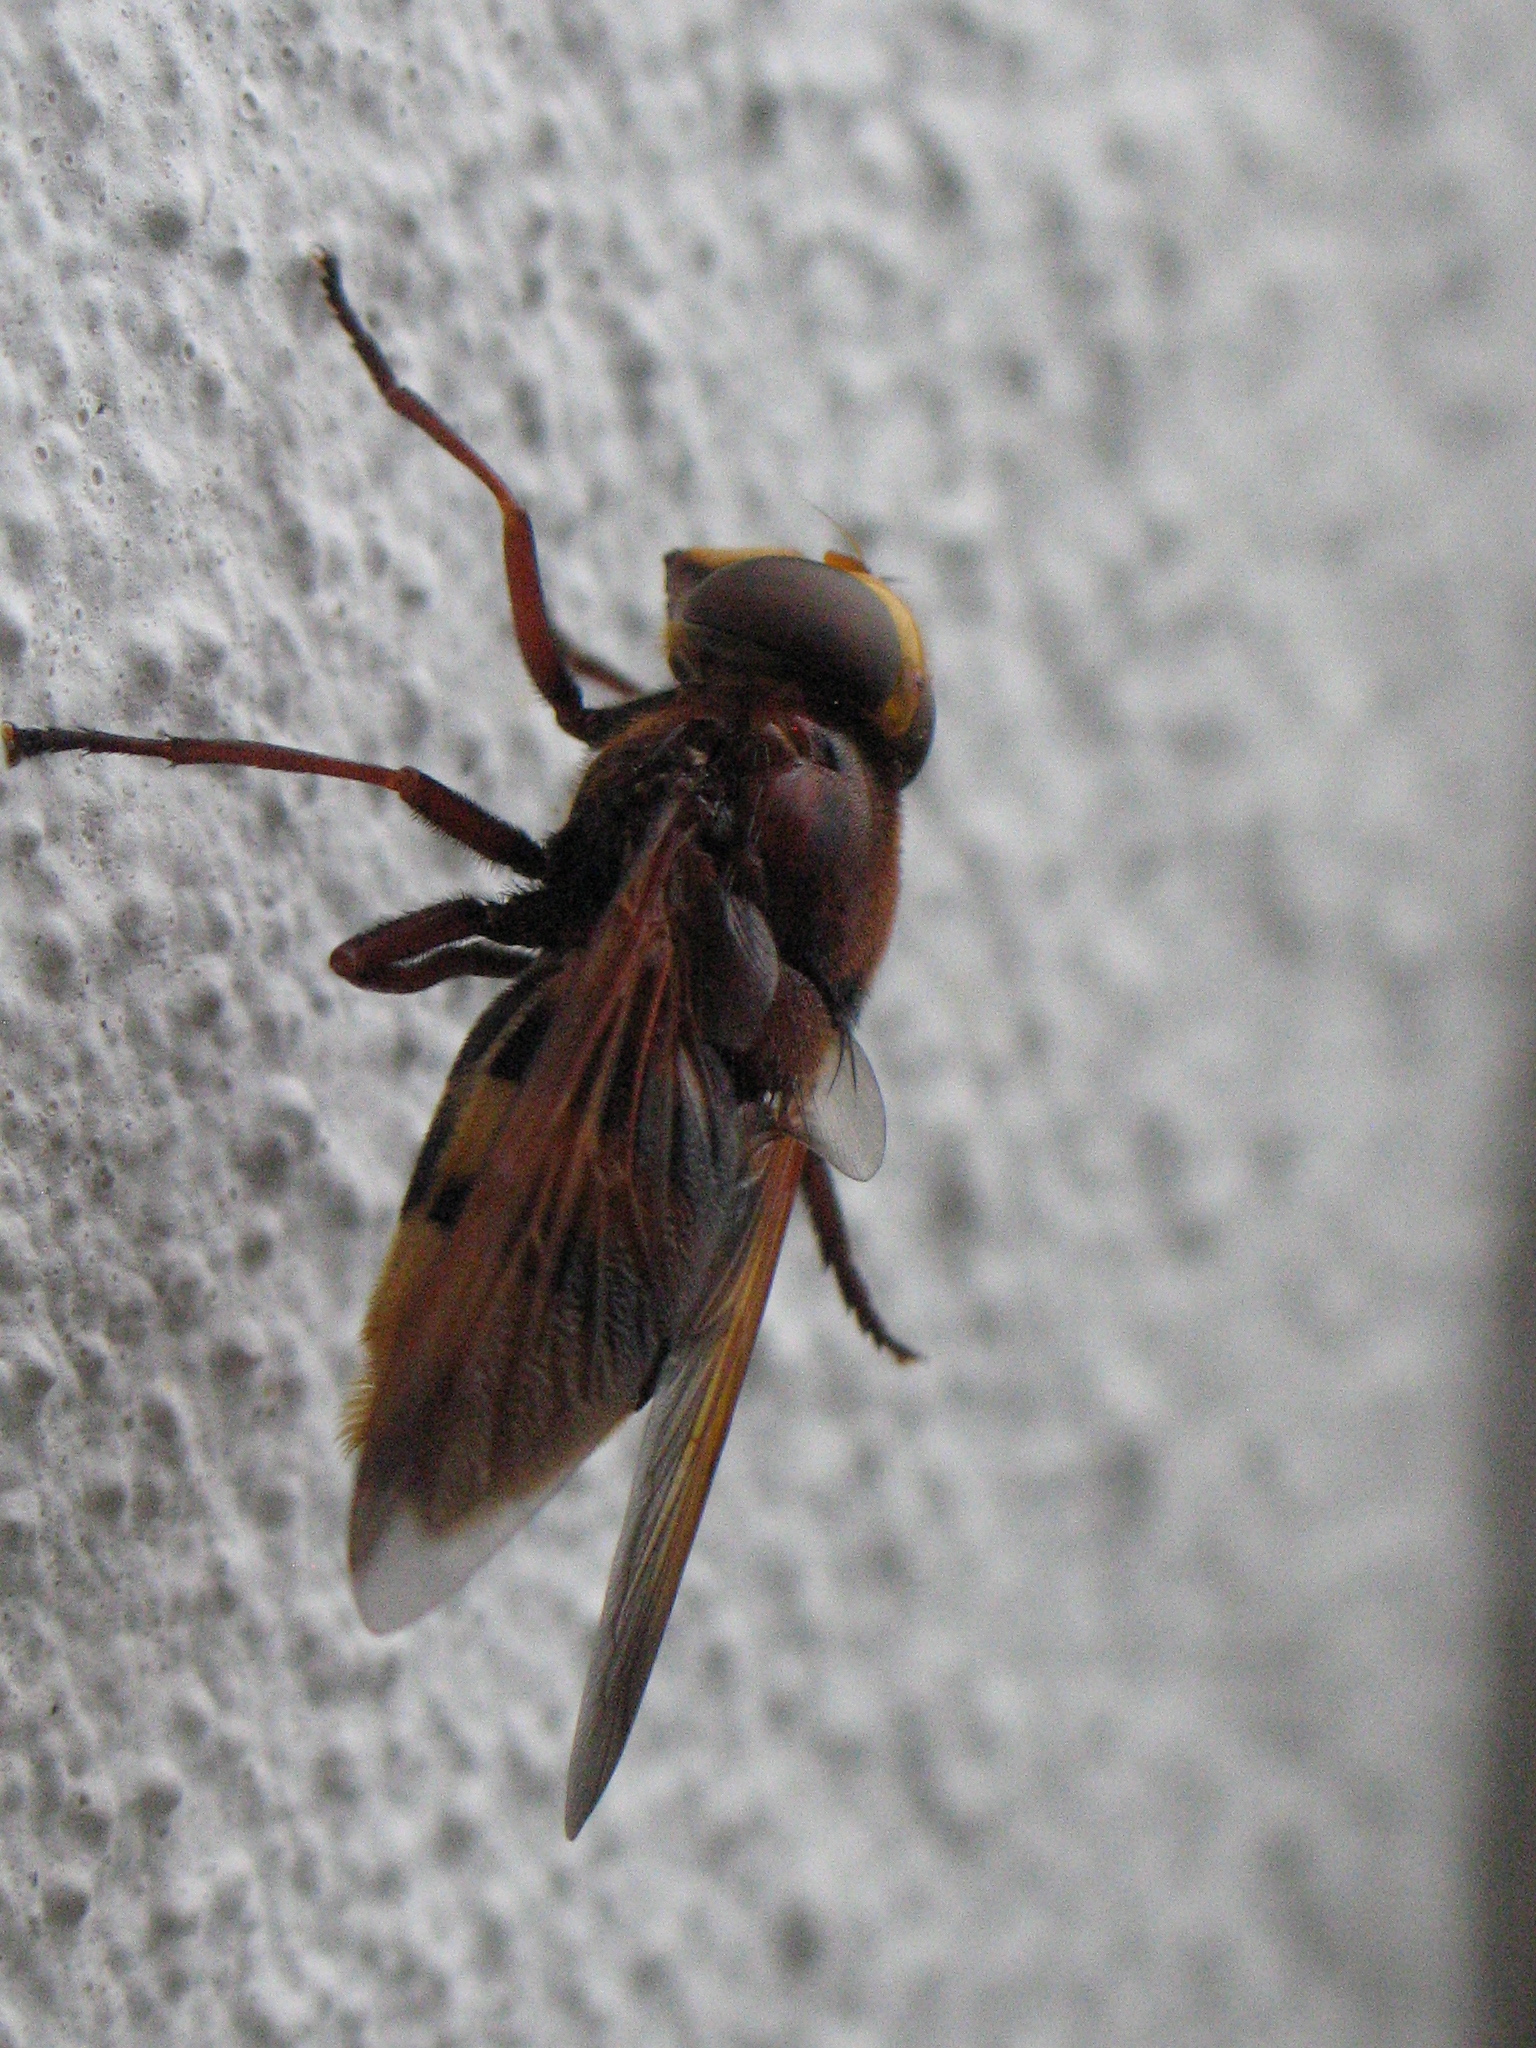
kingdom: Animalia
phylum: Arthropoda
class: Insecta
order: Diptera
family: Syrphidae
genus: Volucella
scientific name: Volucella zonaria
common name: Hornet hoverfly
